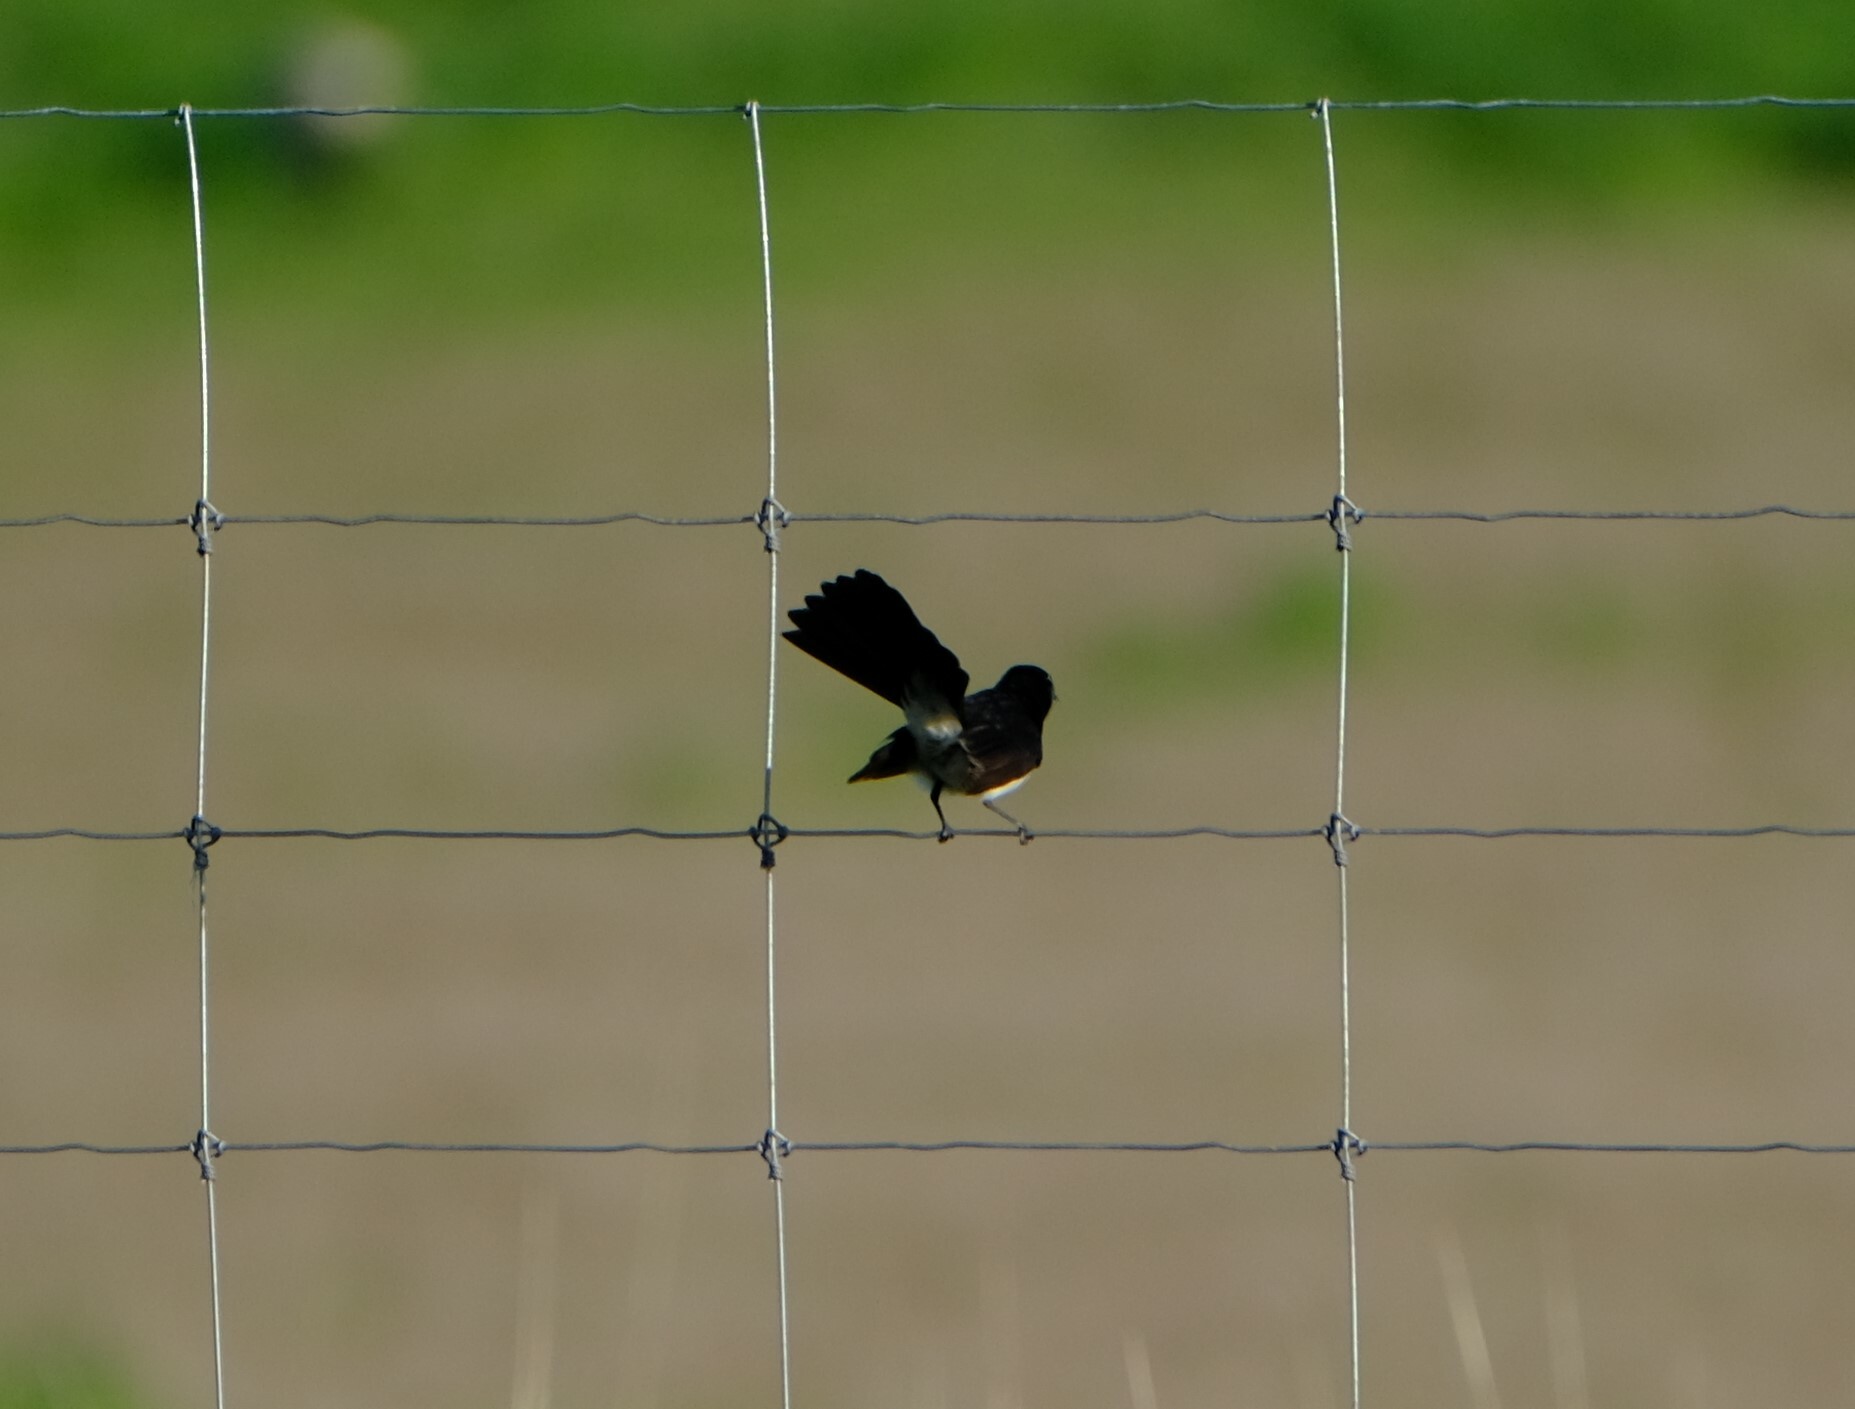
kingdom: Animalia
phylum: Chordata
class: Aves
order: Passeriformes
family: Rhipiduridae
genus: Rhipidura
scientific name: Rhipidura leucophrys
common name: Willie wagtail
